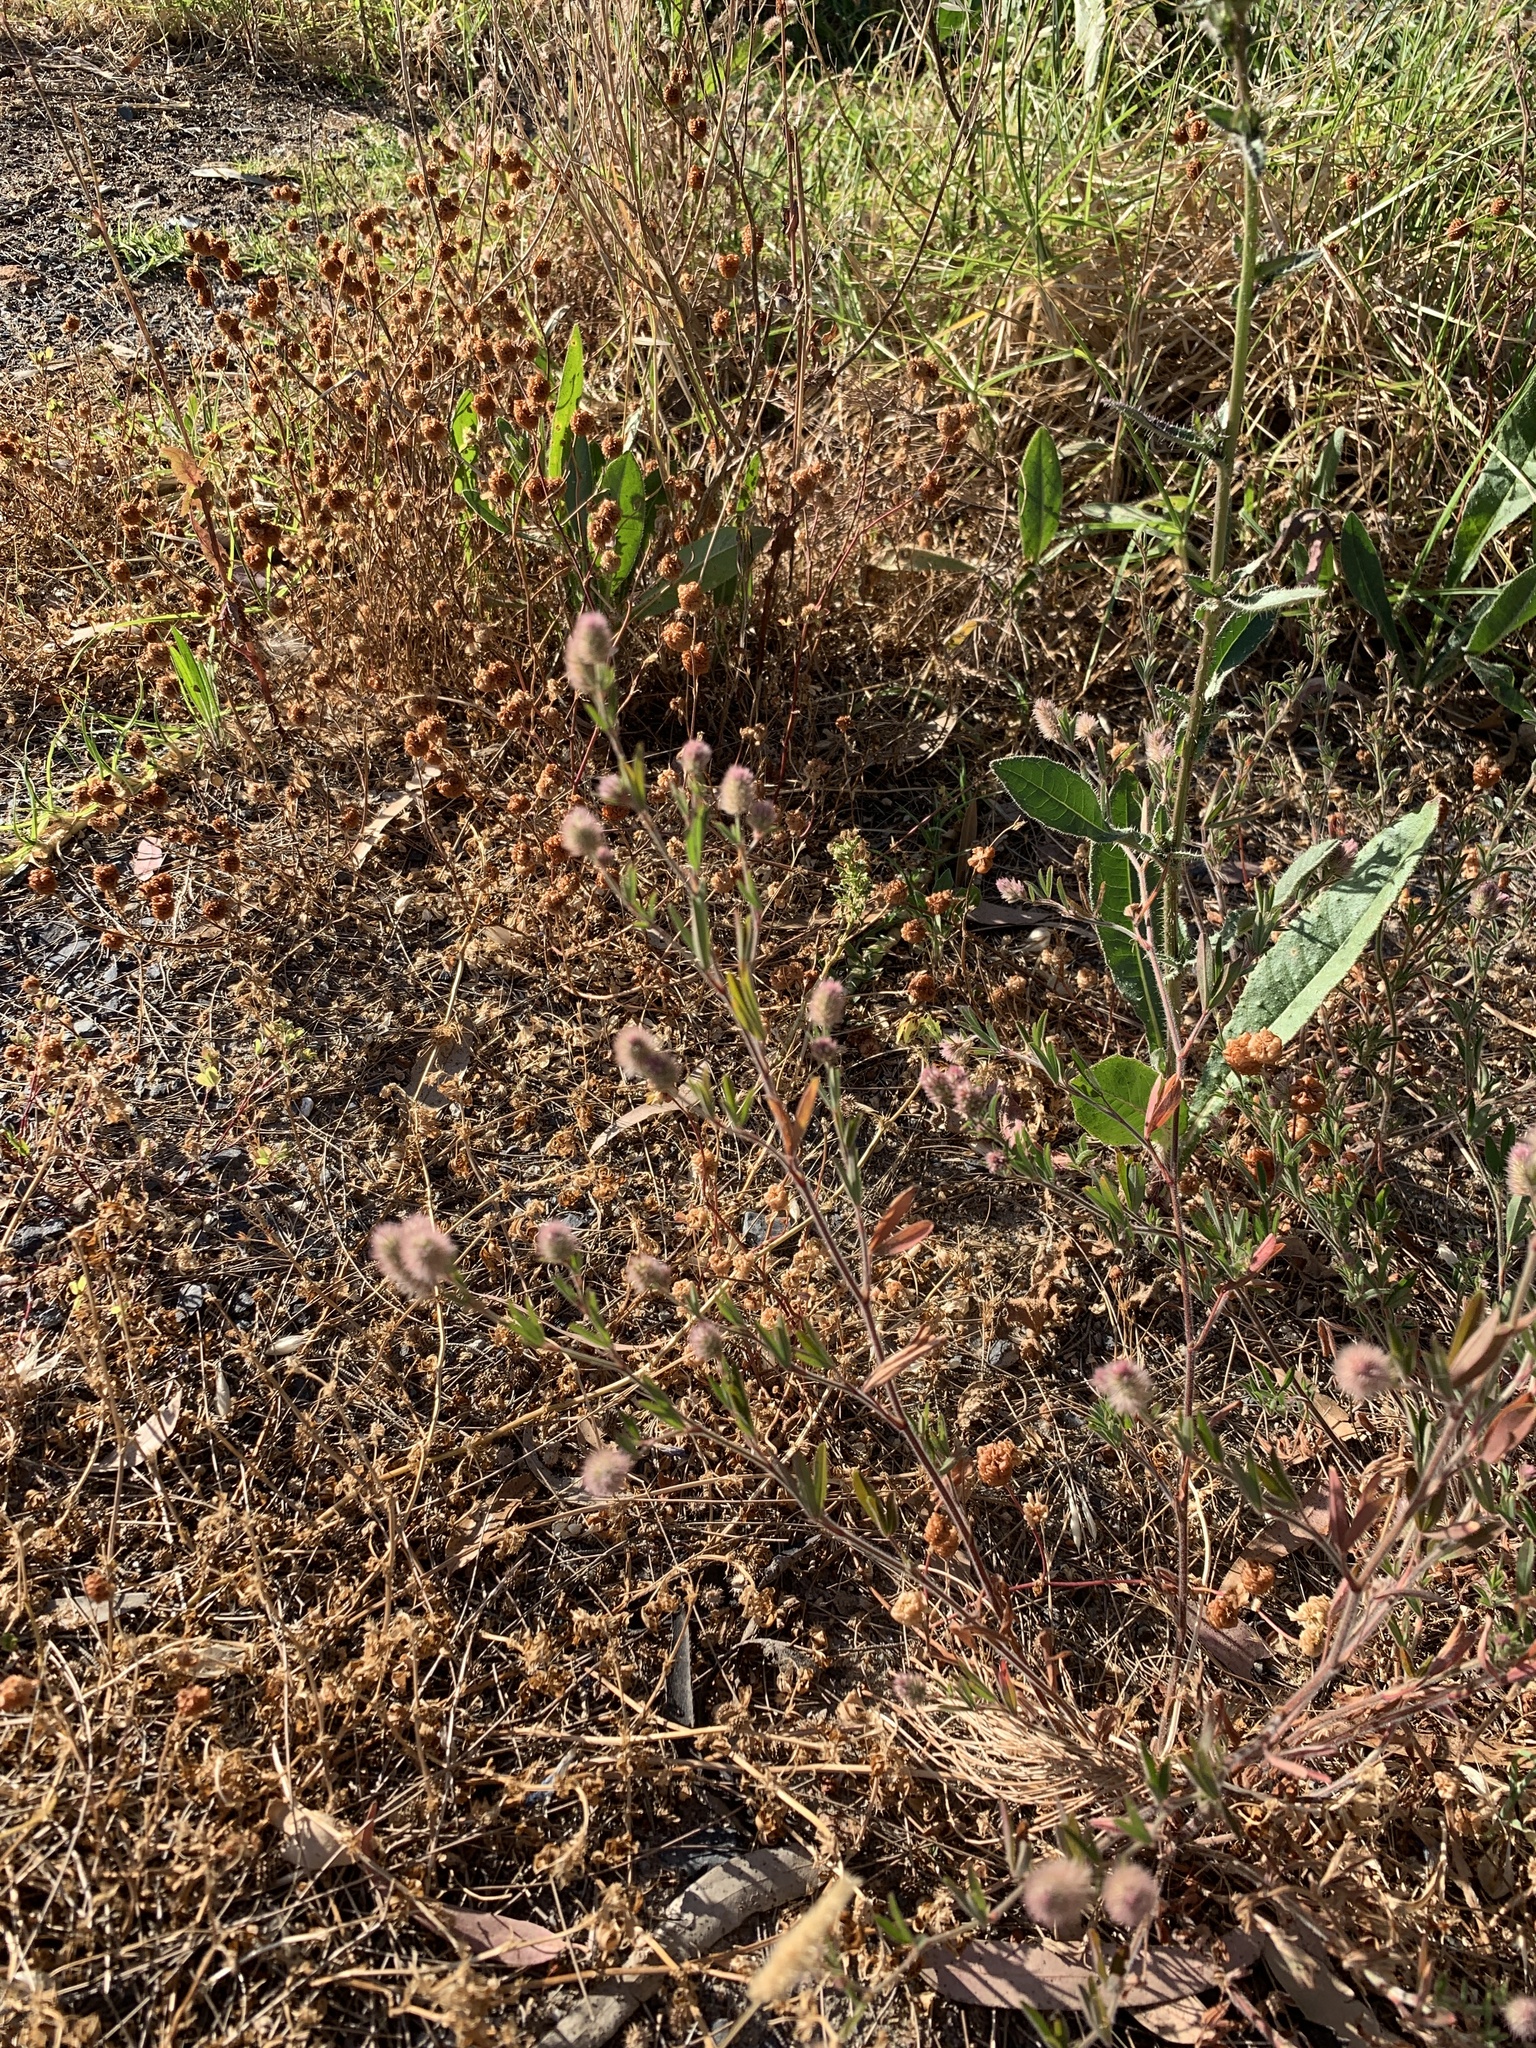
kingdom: Plantae
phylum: Tracheophyta
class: Magnoliopsida
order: Fabales
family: Fabaceae
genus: Trifolium
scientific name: Trifolium arvense
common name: Hare's-foot clover
